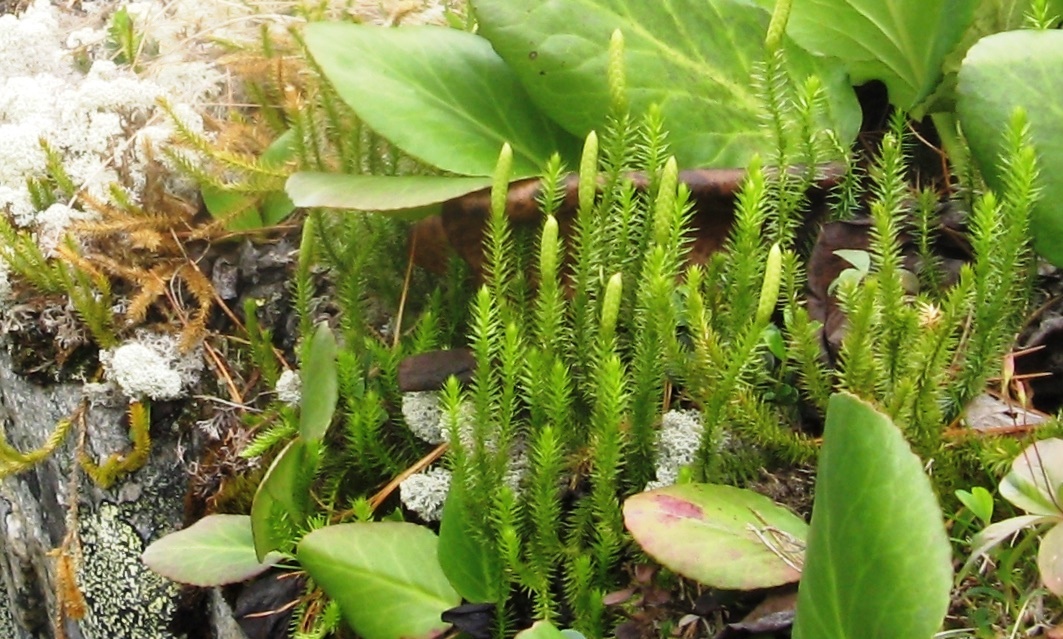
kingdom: Plantae
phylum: Tracheophyta
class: Lycopodiopsida
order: Lycopodiales
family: Lycopodiaceae
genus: Spinulum
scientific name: Spinulum annotinum
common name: Interrupted club-moss
